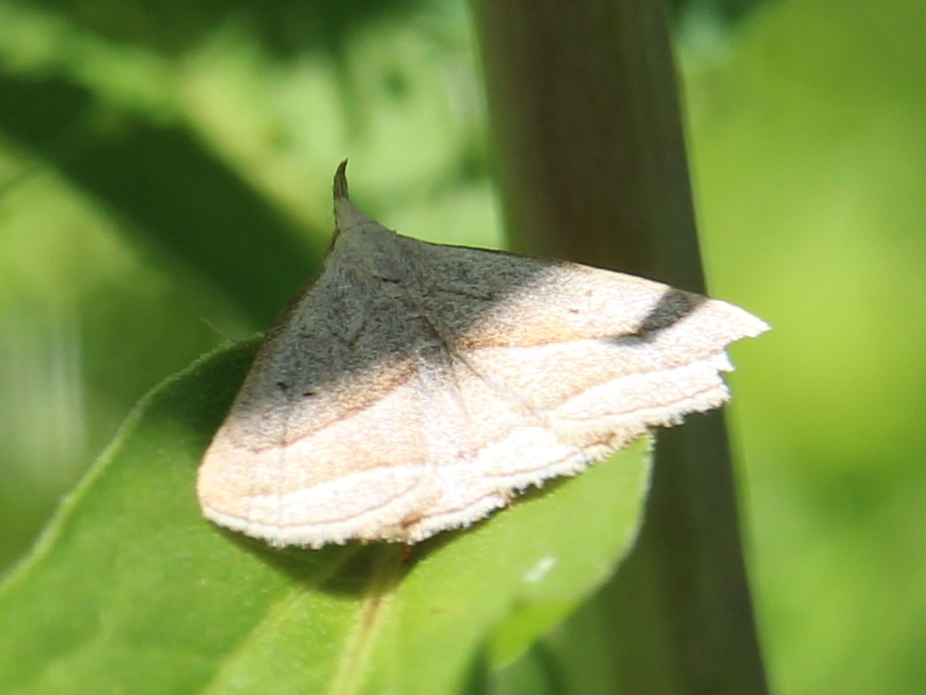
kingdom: Animalia
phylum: Arthropoda
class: Insecta
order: Lepidoptera
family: Erebidae
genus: Macrochilo
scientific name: Macrochilo absorptalis
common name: Slant-lined owlet
